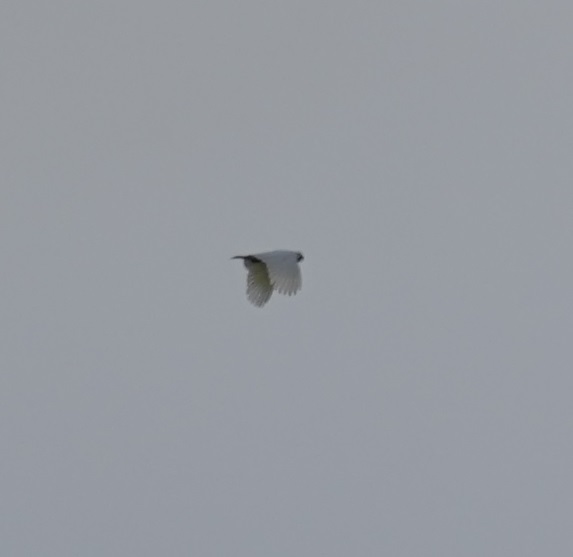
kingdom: Animalia
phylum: Chordata
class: Aves
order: Psittaciformes
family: Psittacidae
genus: Cacatua
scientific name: Cacatua galerita
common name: Sulphur-crested cockatoo
